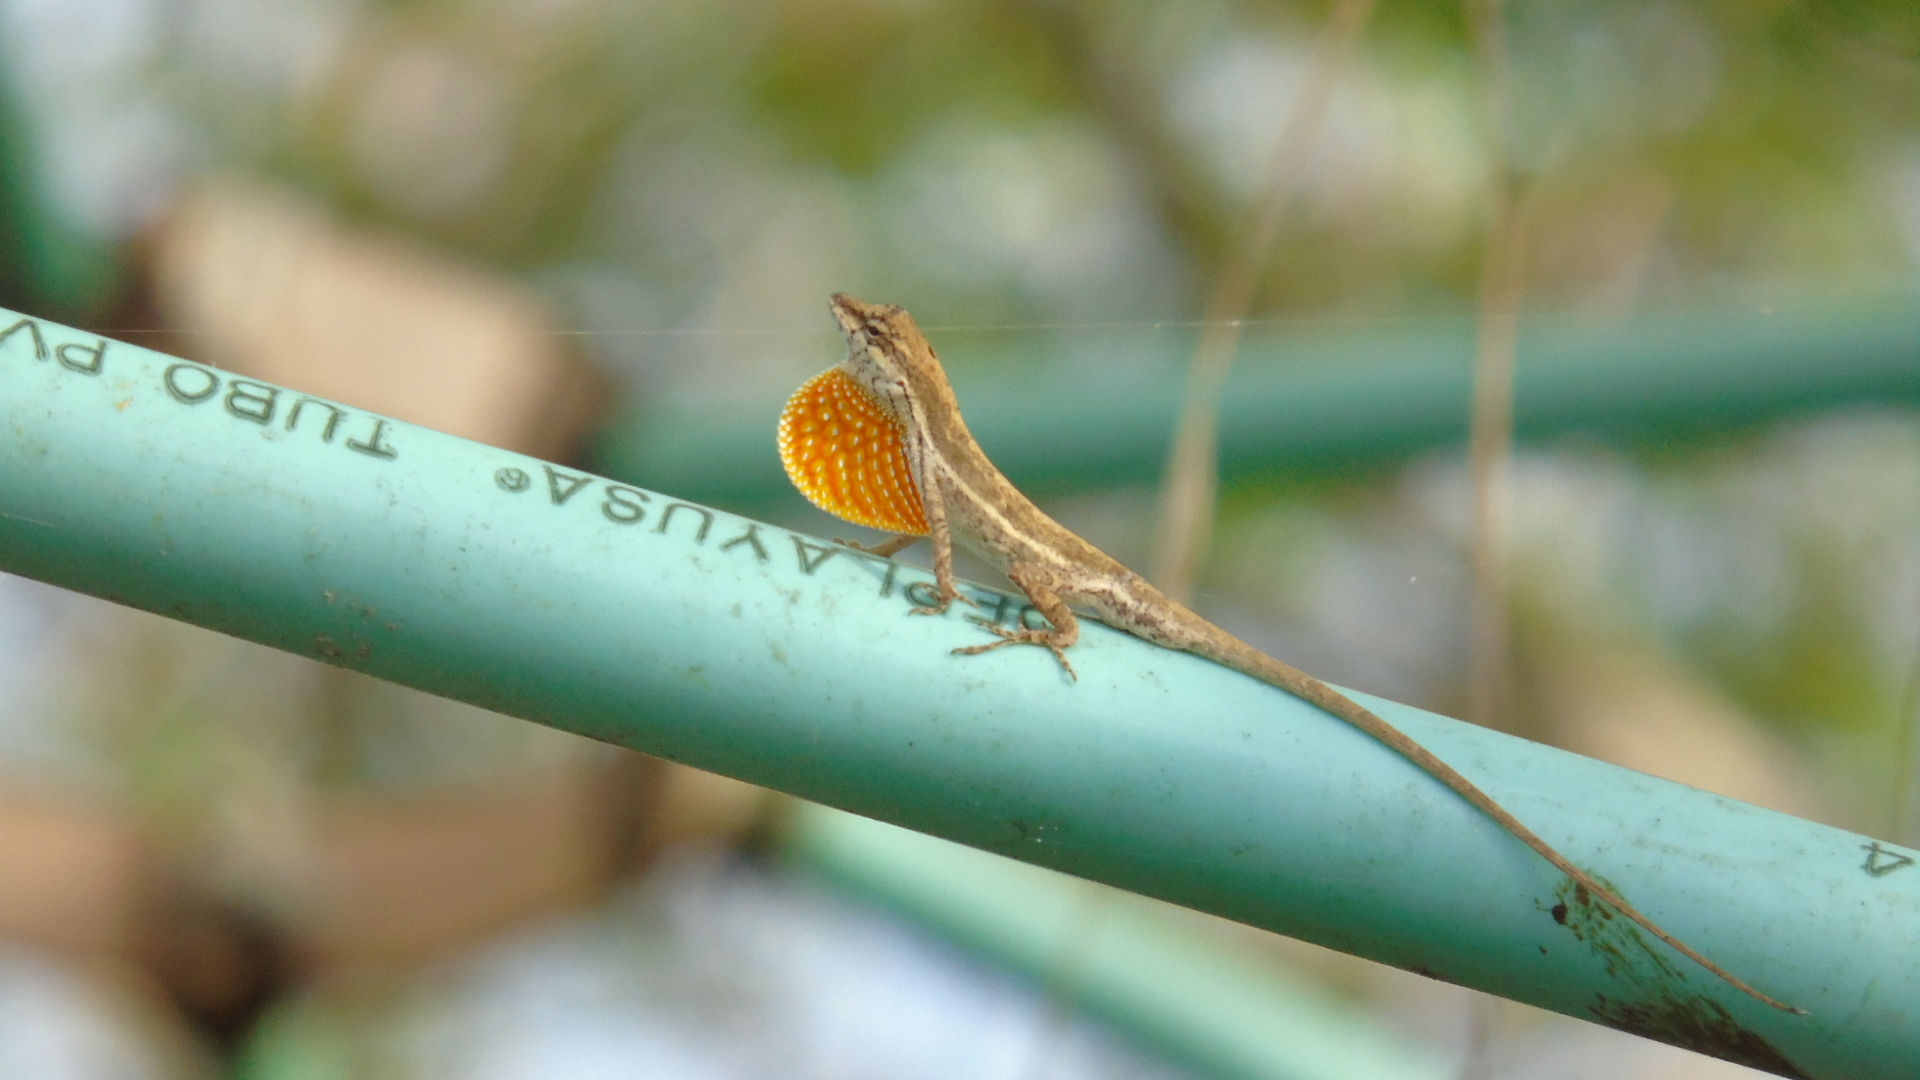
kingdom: Animalia
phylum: Chordata
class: Squamata
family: Dactyloidae
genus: Anolis
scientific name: Anolis nebulosus
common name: Clouded anole
